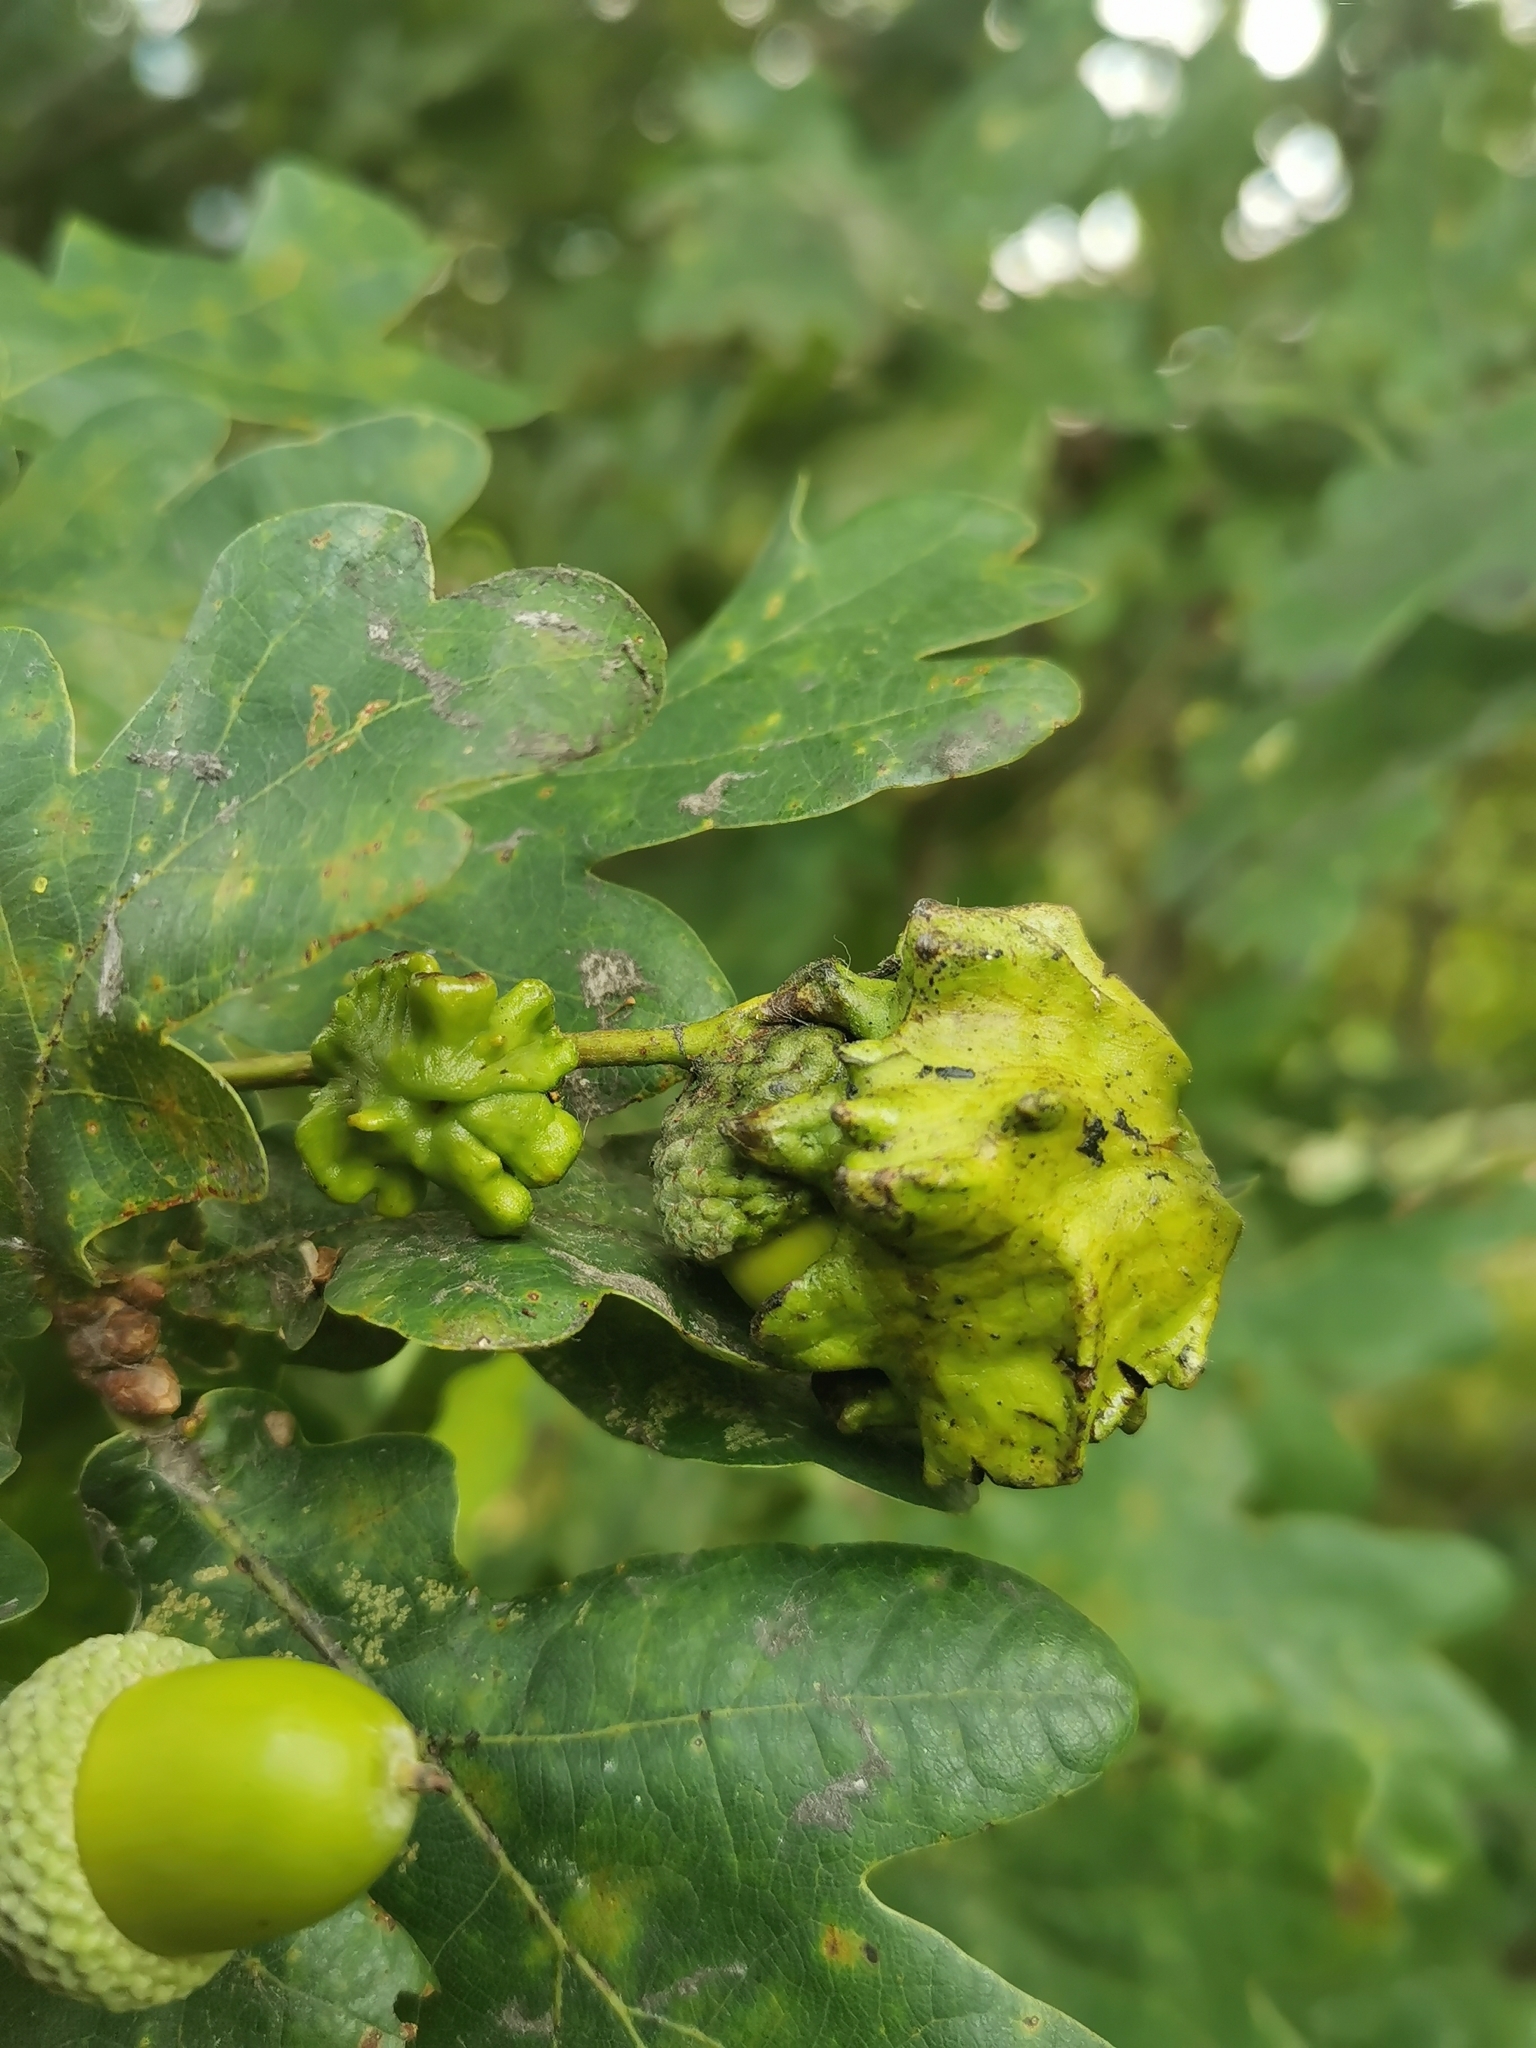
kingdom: Animalia
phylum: Arthropoda
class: Insecta
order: Hymenoptera
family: Cynipidae
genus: Andricus
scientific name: Andricus quercuscalicis
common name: Knopper gall
